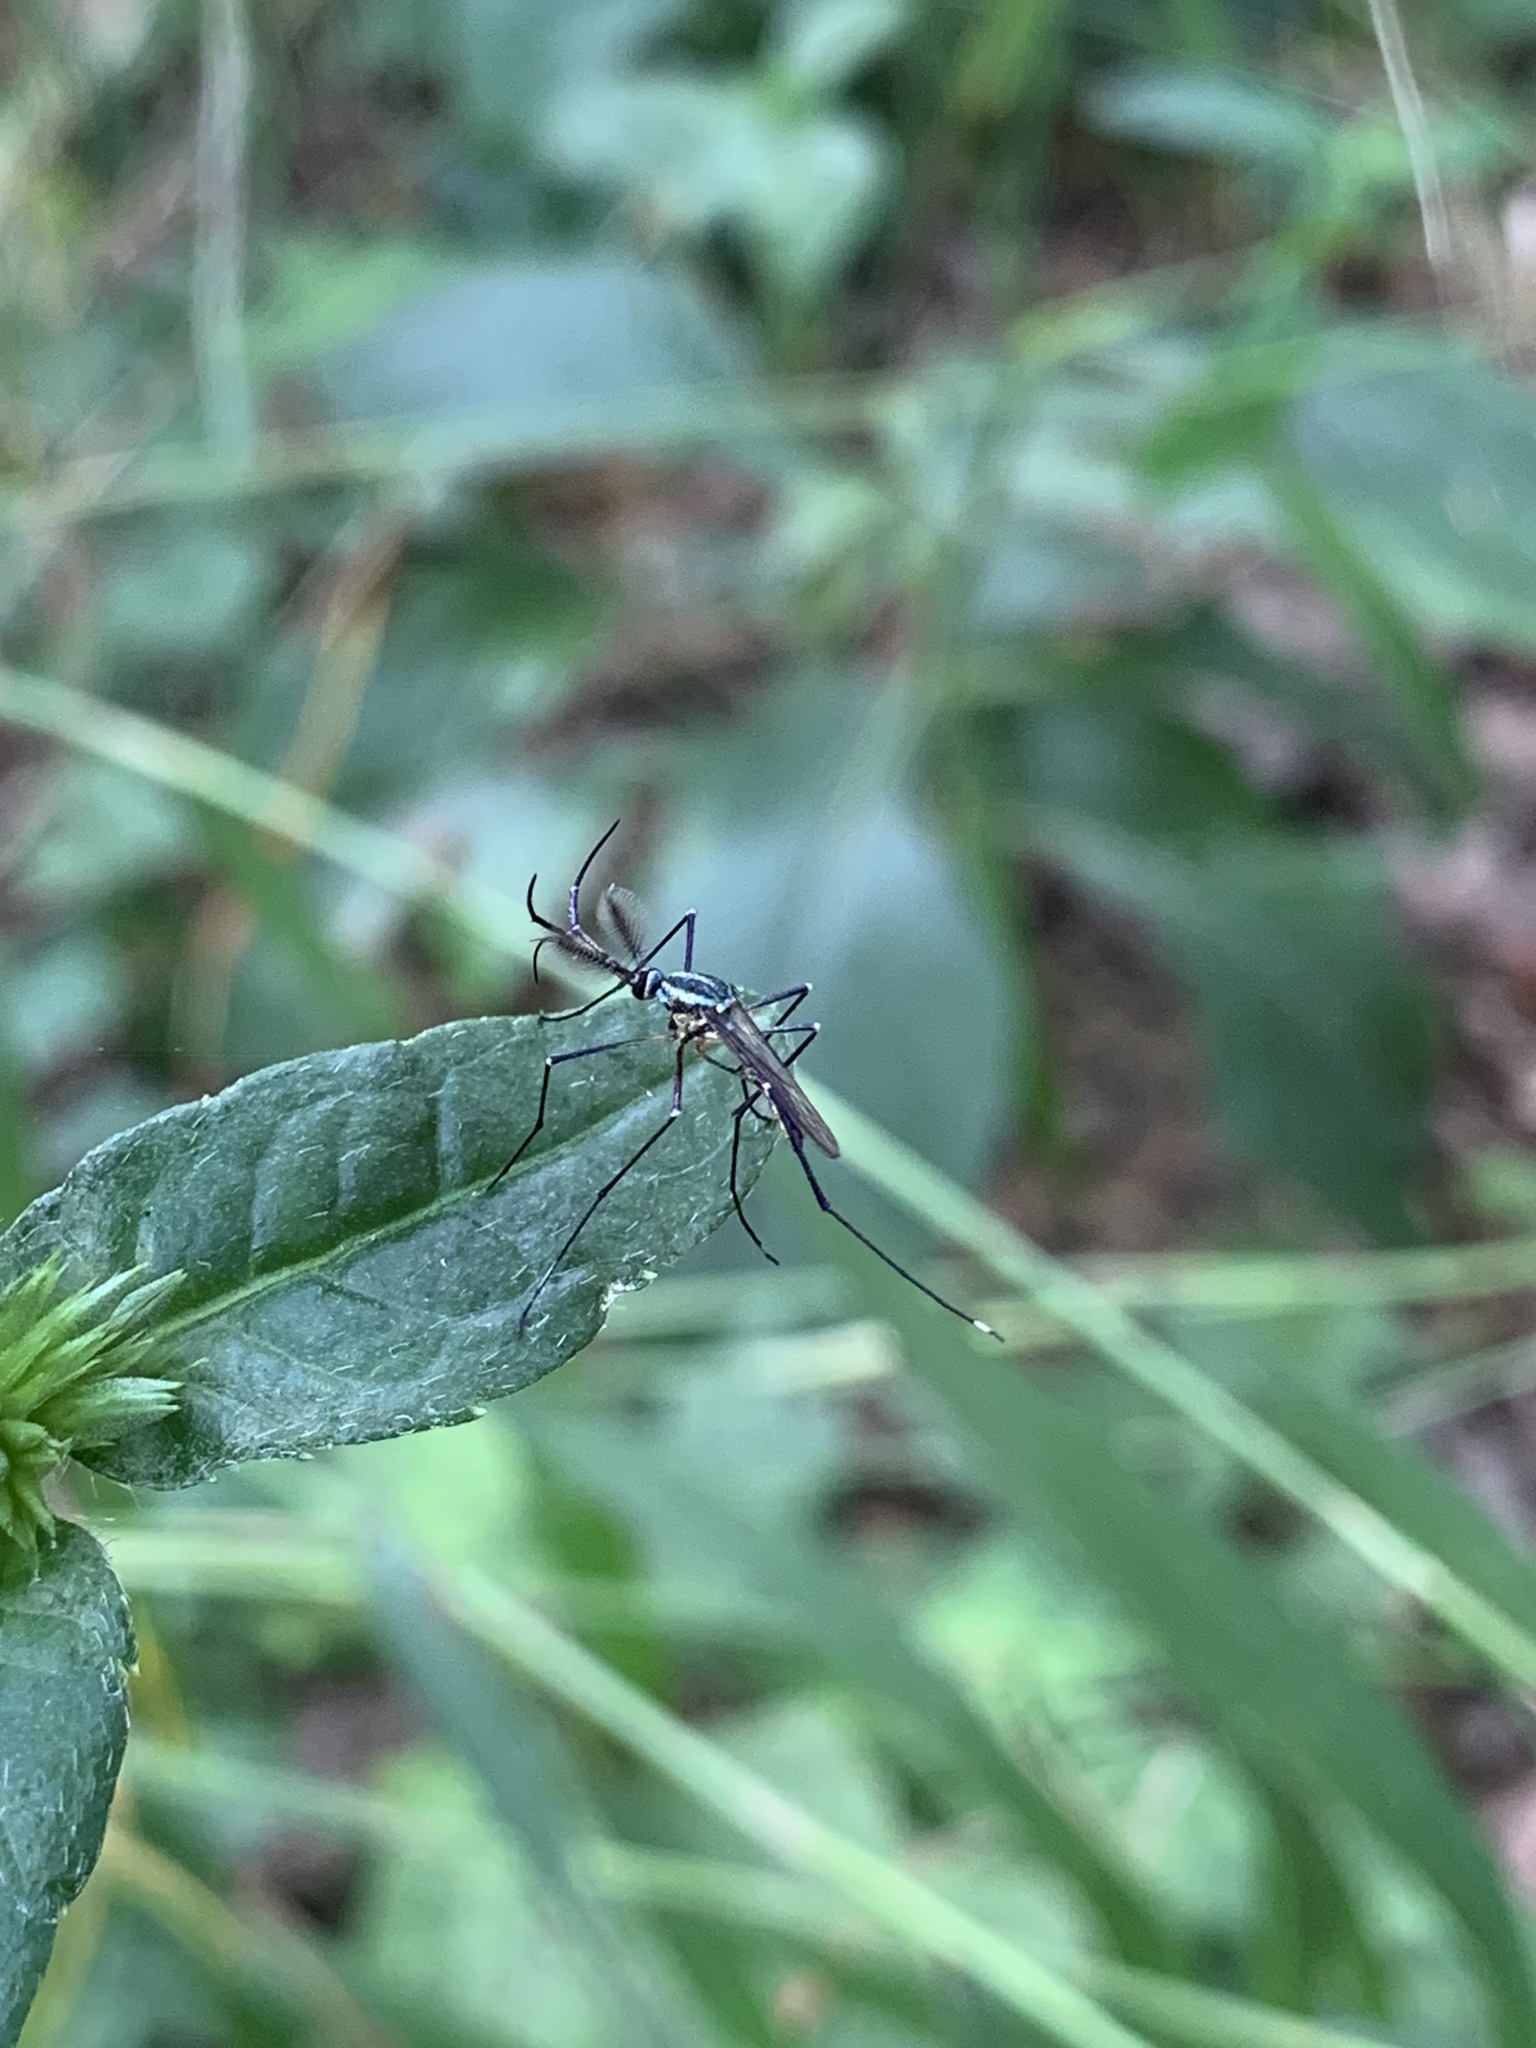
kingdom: Animalia
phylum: Arthropoda
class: Insecta
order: Diptera
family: Culicidae
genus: Toxorhynchites
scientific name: Toxorhynchites rutilus
